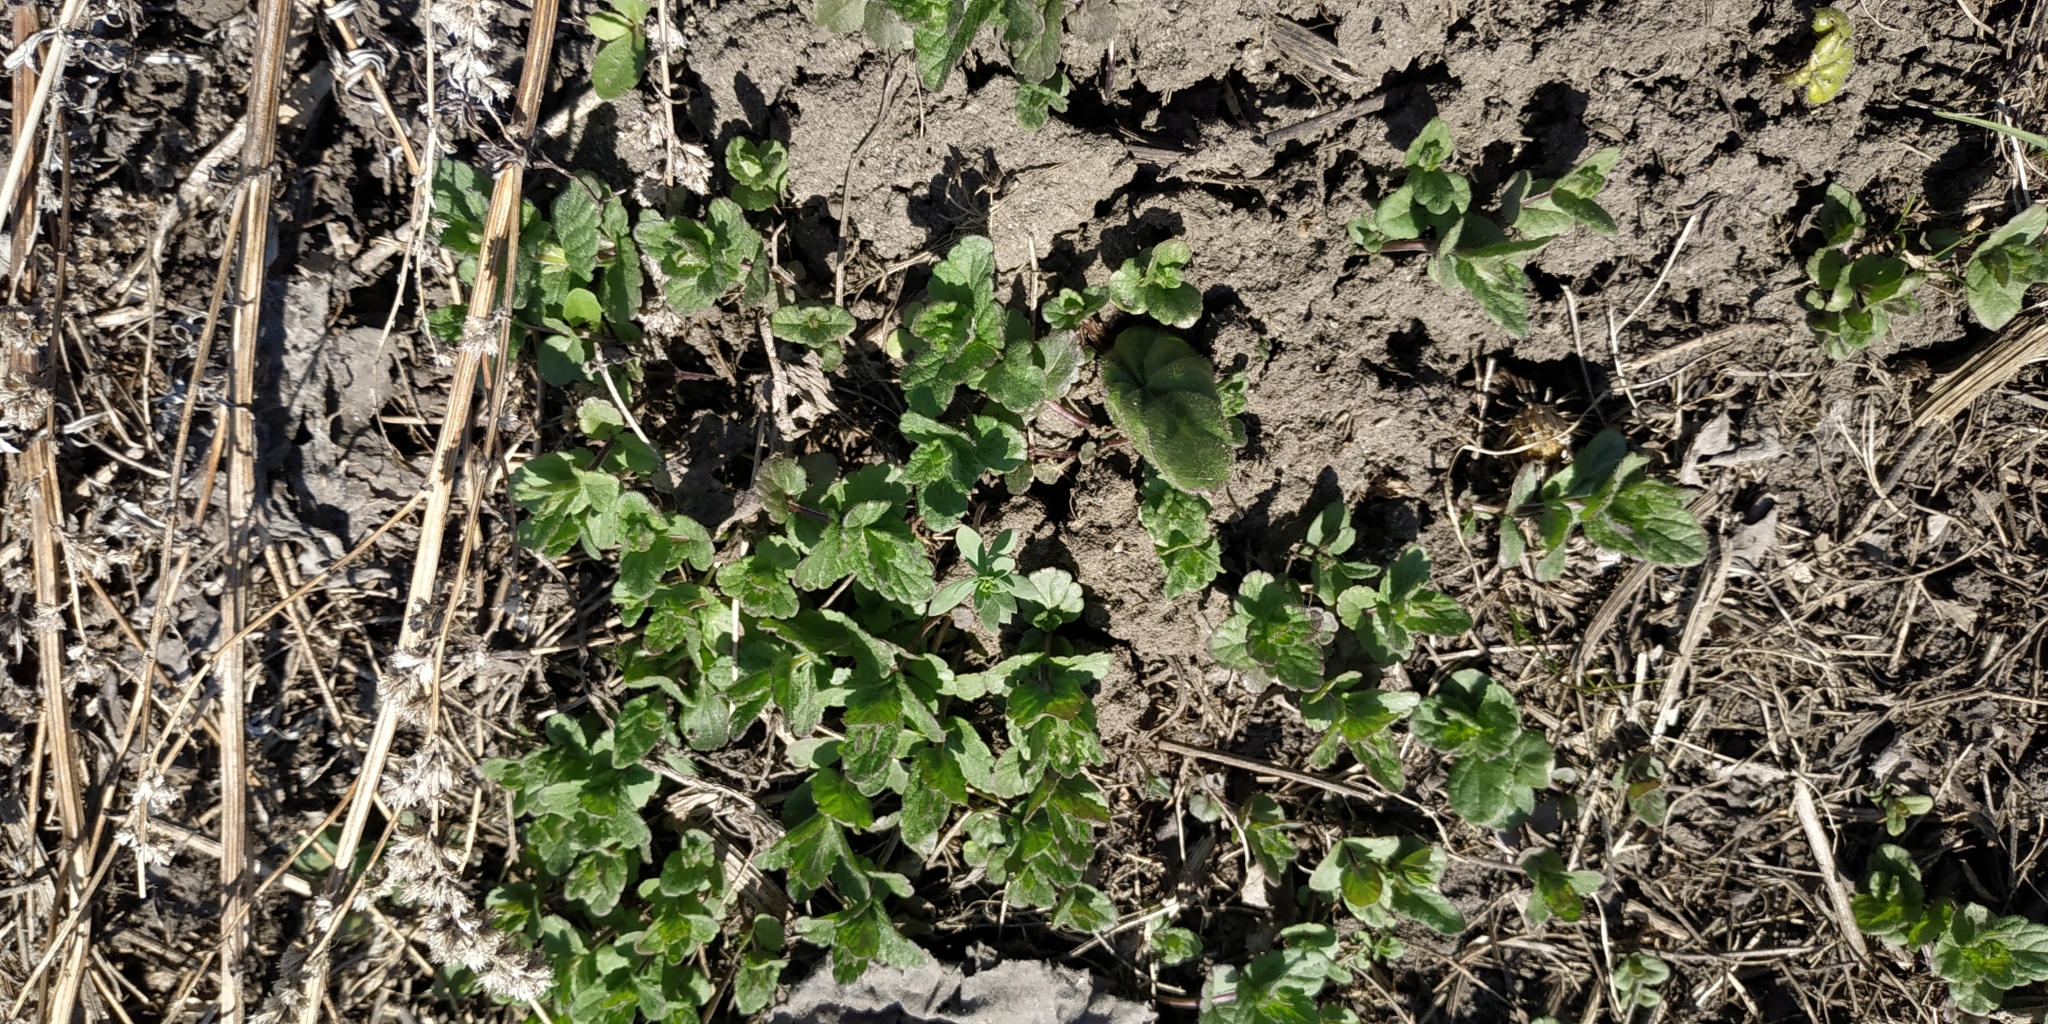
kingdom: Plantae
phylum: Tracheophyta
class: Magnoliopsida
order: Lamiales
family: Plantaginaceae
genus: Veronica
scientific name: Veronica chamaedrys
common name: Germander speedwell
